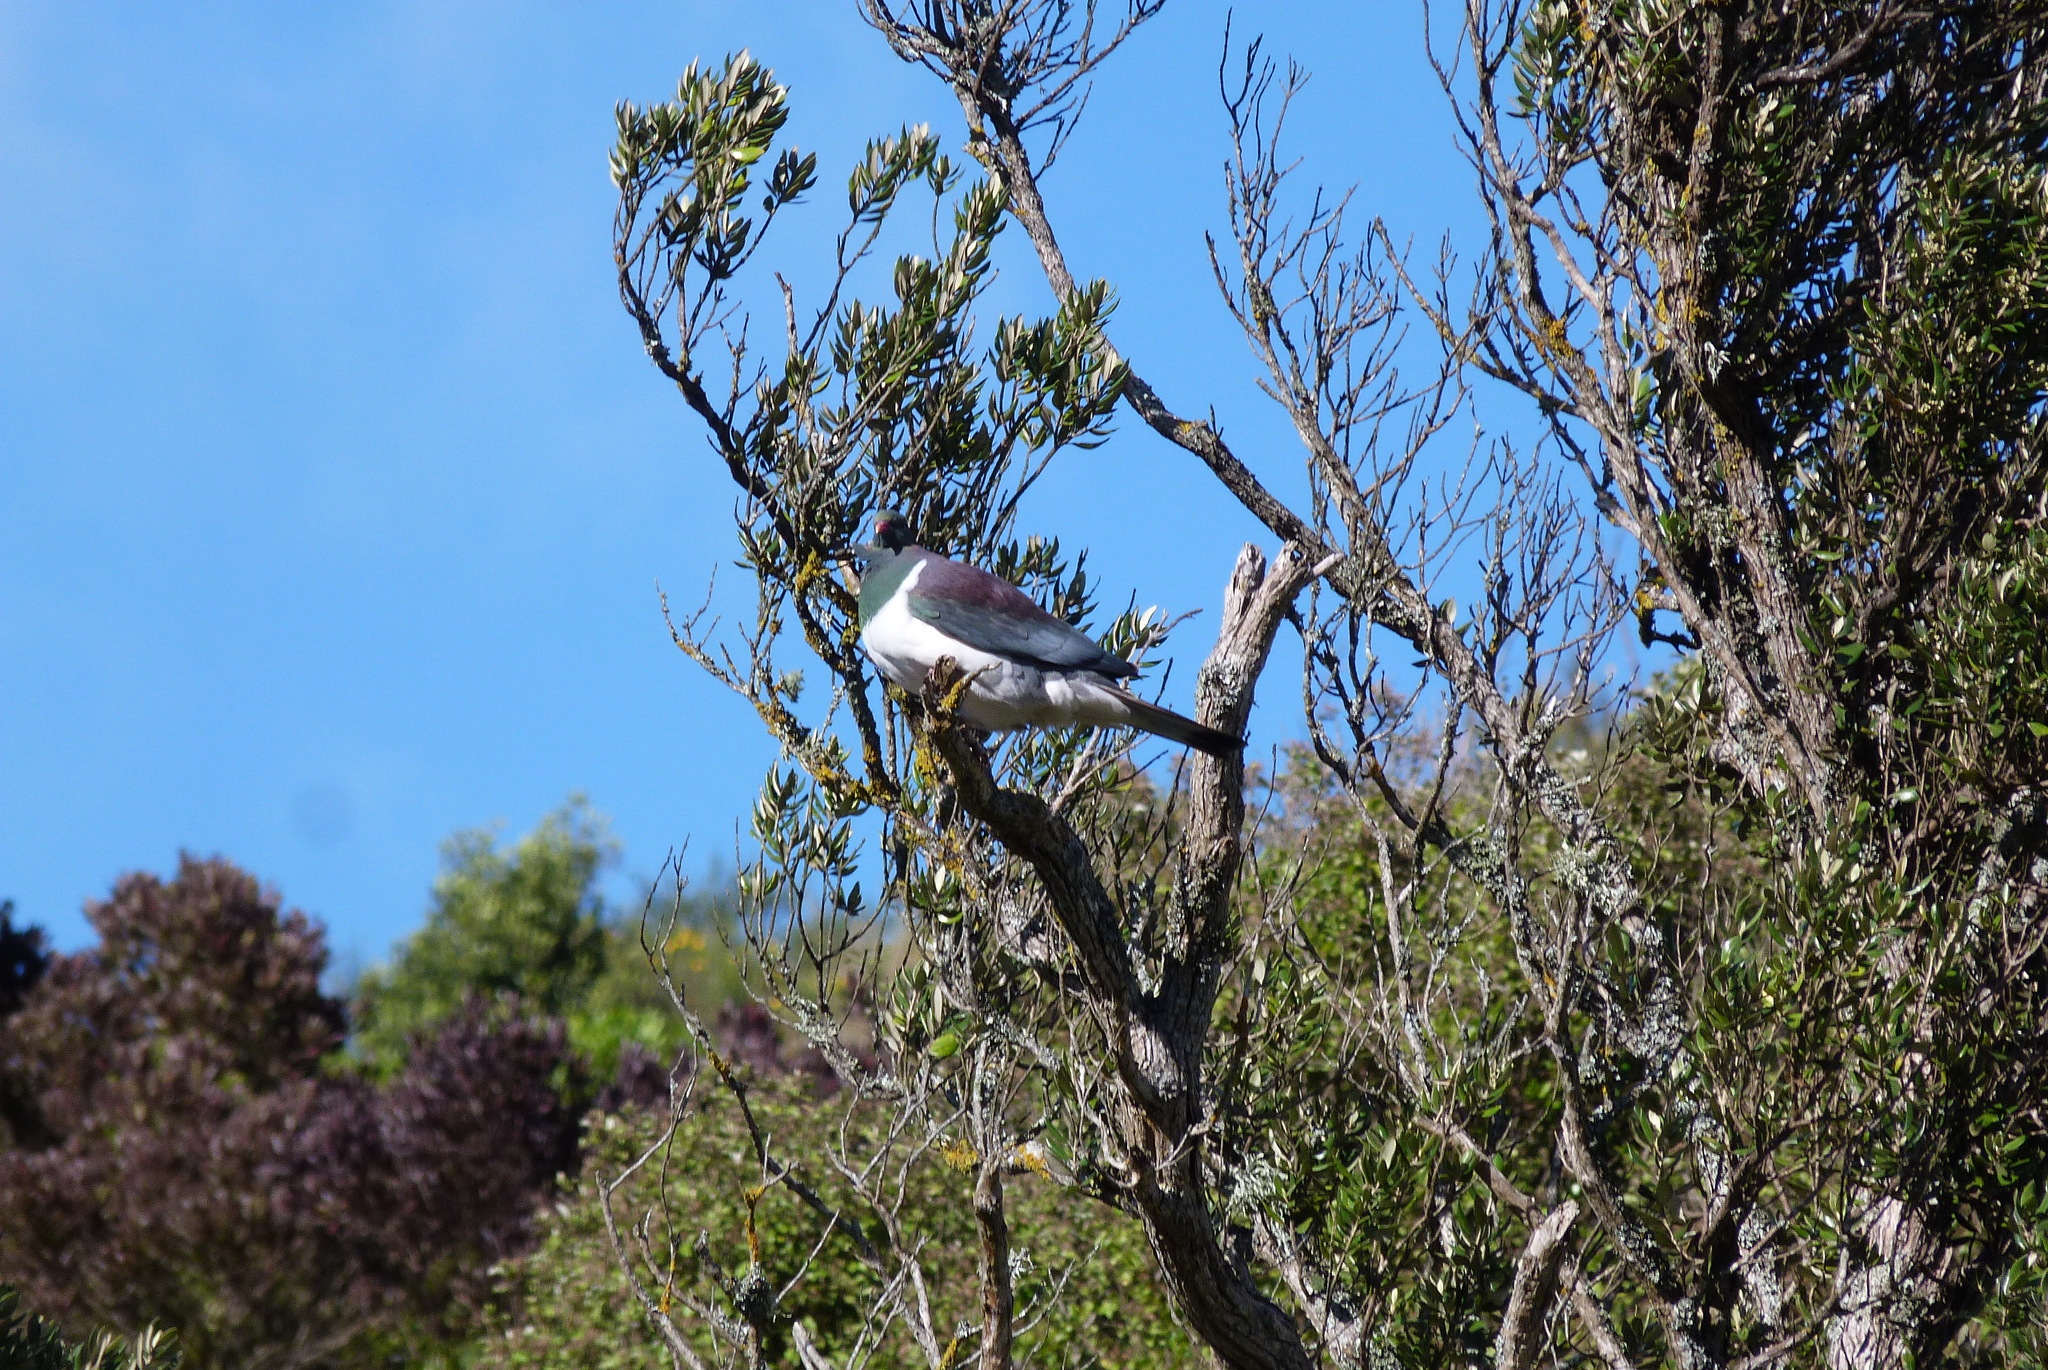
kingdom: Animalia
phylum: Chordata
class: Aves
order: Columbiformes
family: Columbidae
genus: Hemiphaga
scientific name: Hemiphaga novaeseelandiae
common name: New zealand pigeon
